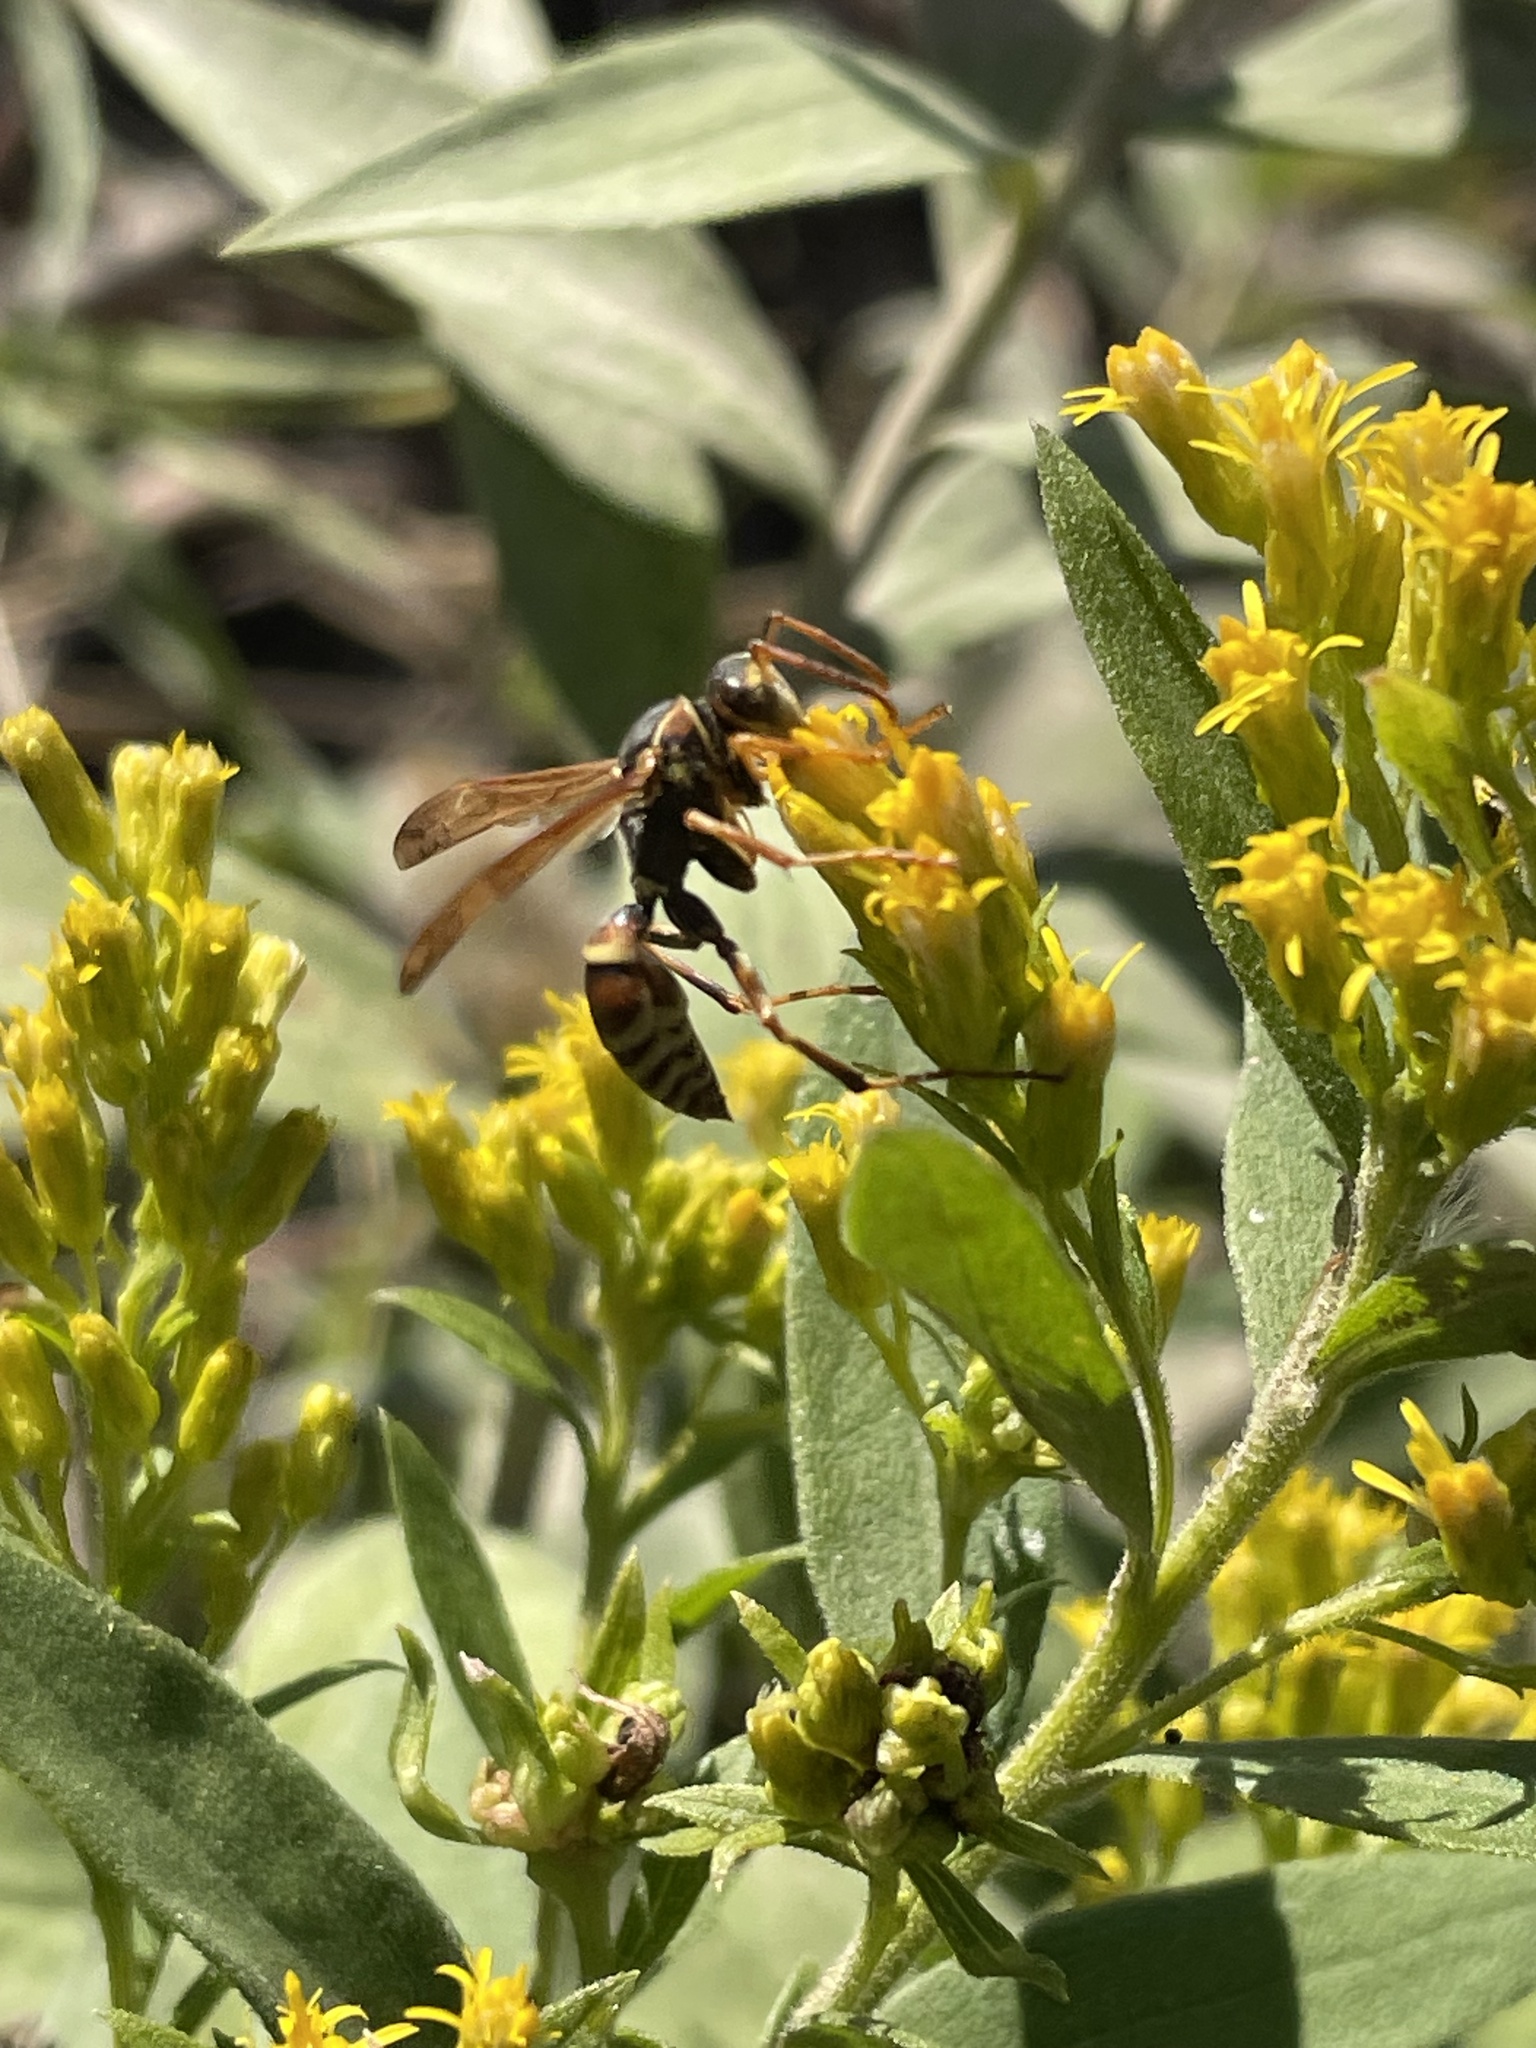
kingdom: Animalia
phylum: Arthropoda
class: Insecta
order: Hymenoptera
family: Eumenidae
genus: Polistes
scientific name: Polistes dorsalis
